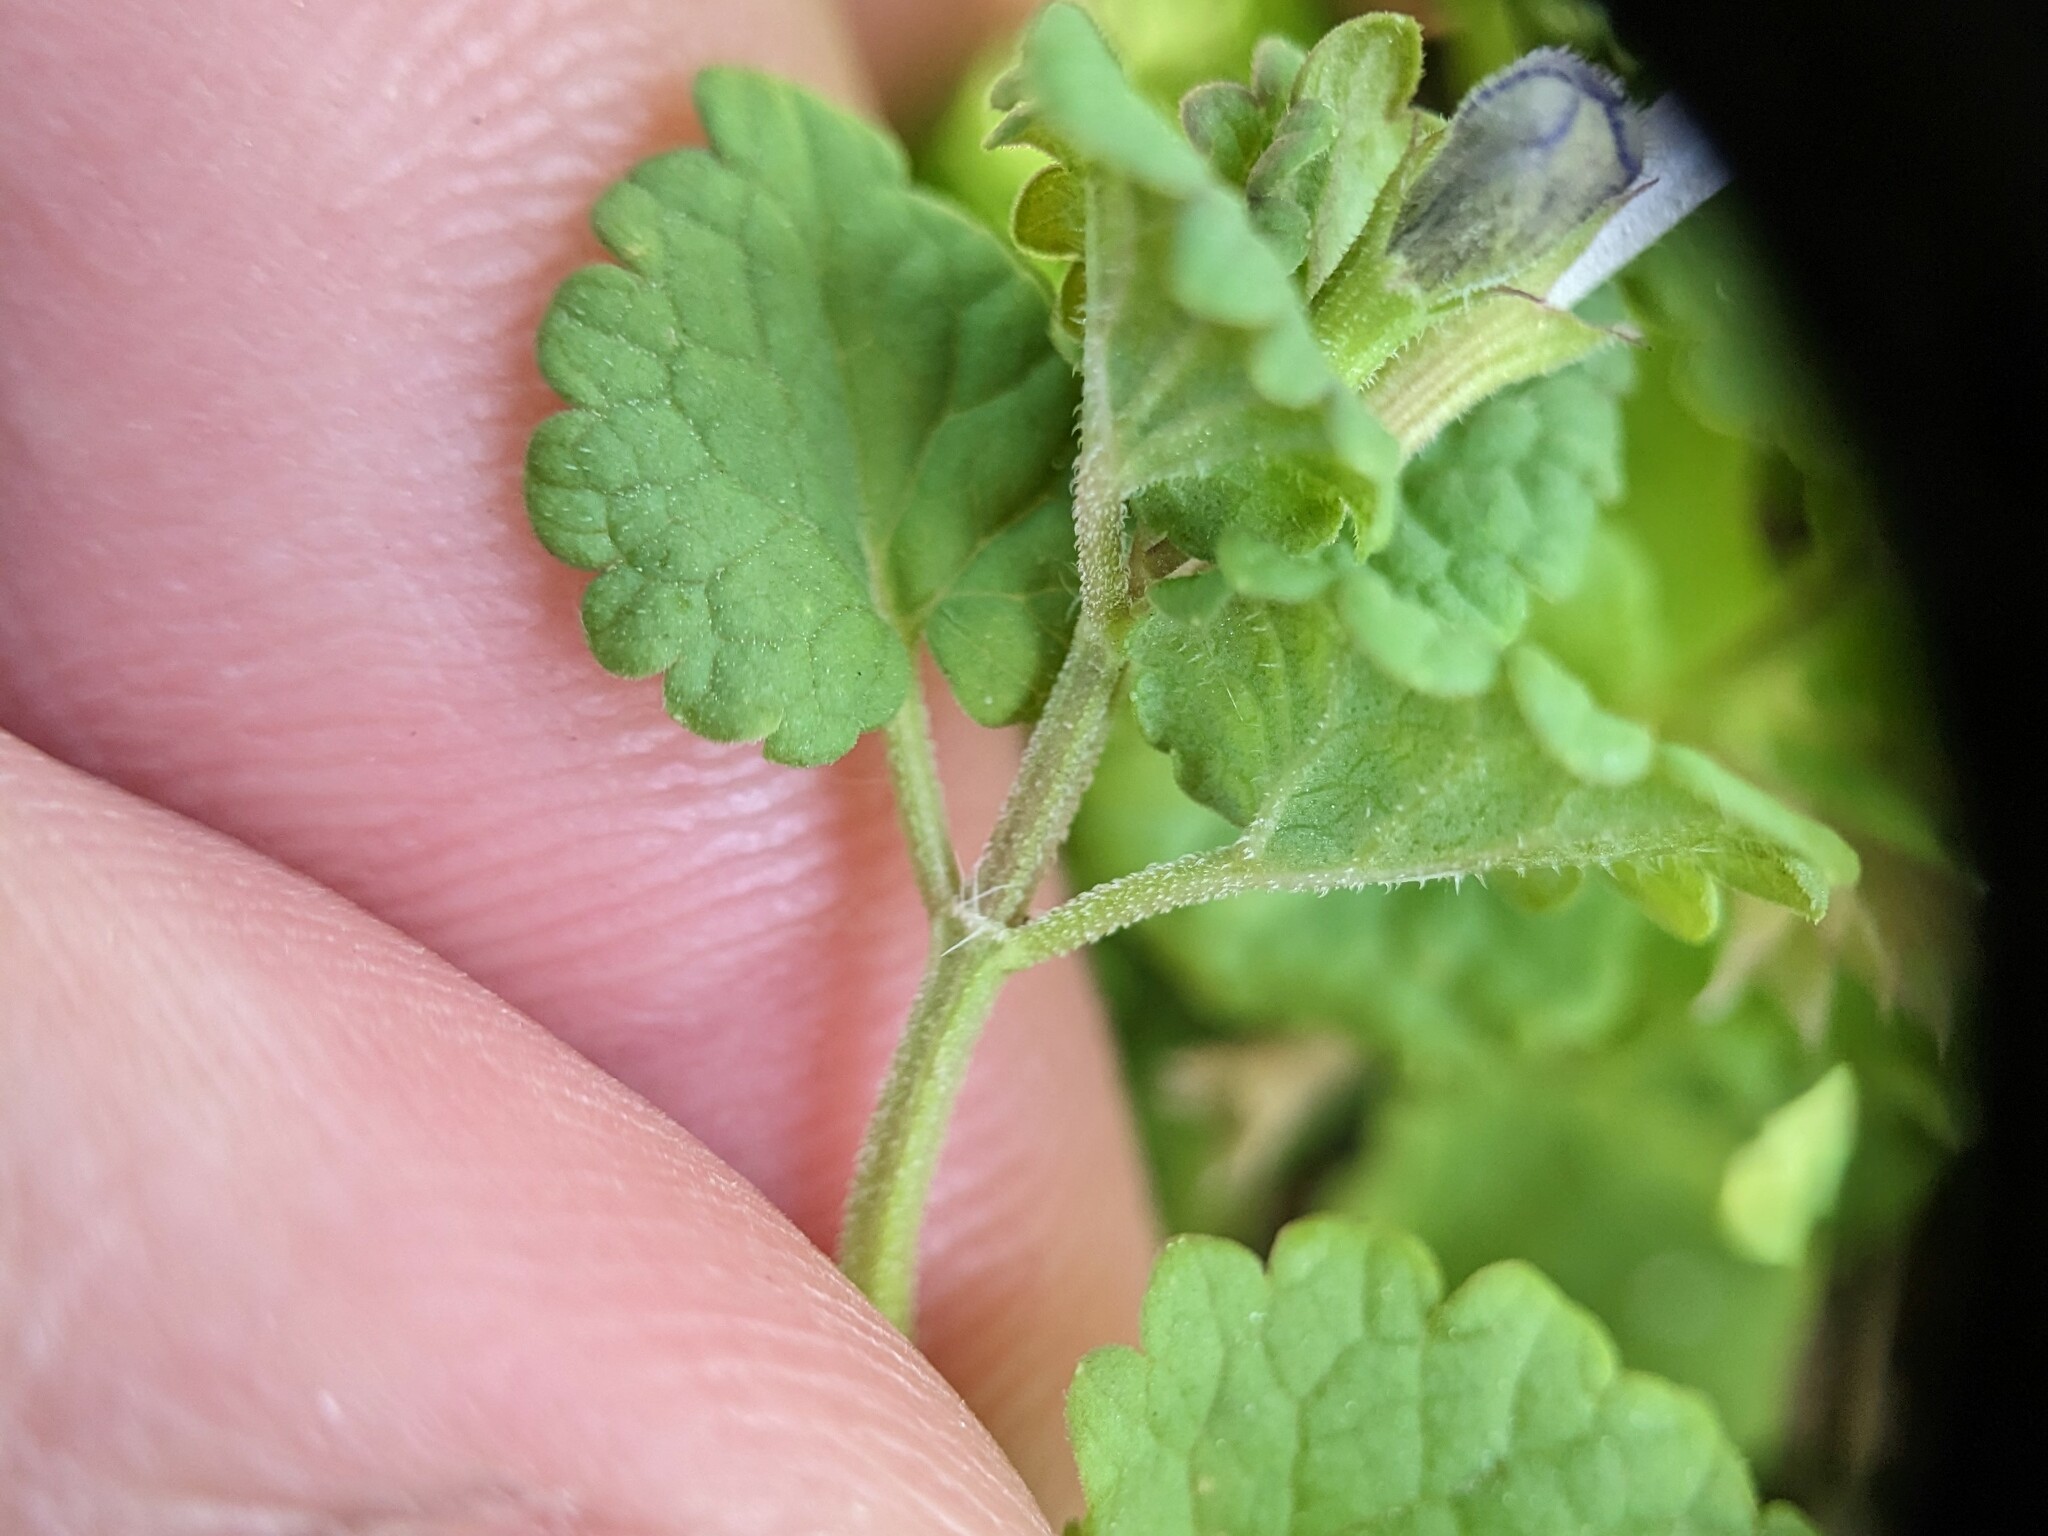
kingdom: Plantae
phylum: Tracheophyta
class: Magnoliopsida
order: Lamiales
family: Lamiaceae
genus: Glechoma
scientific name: Glechoma hederacea
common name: Ground ivy
